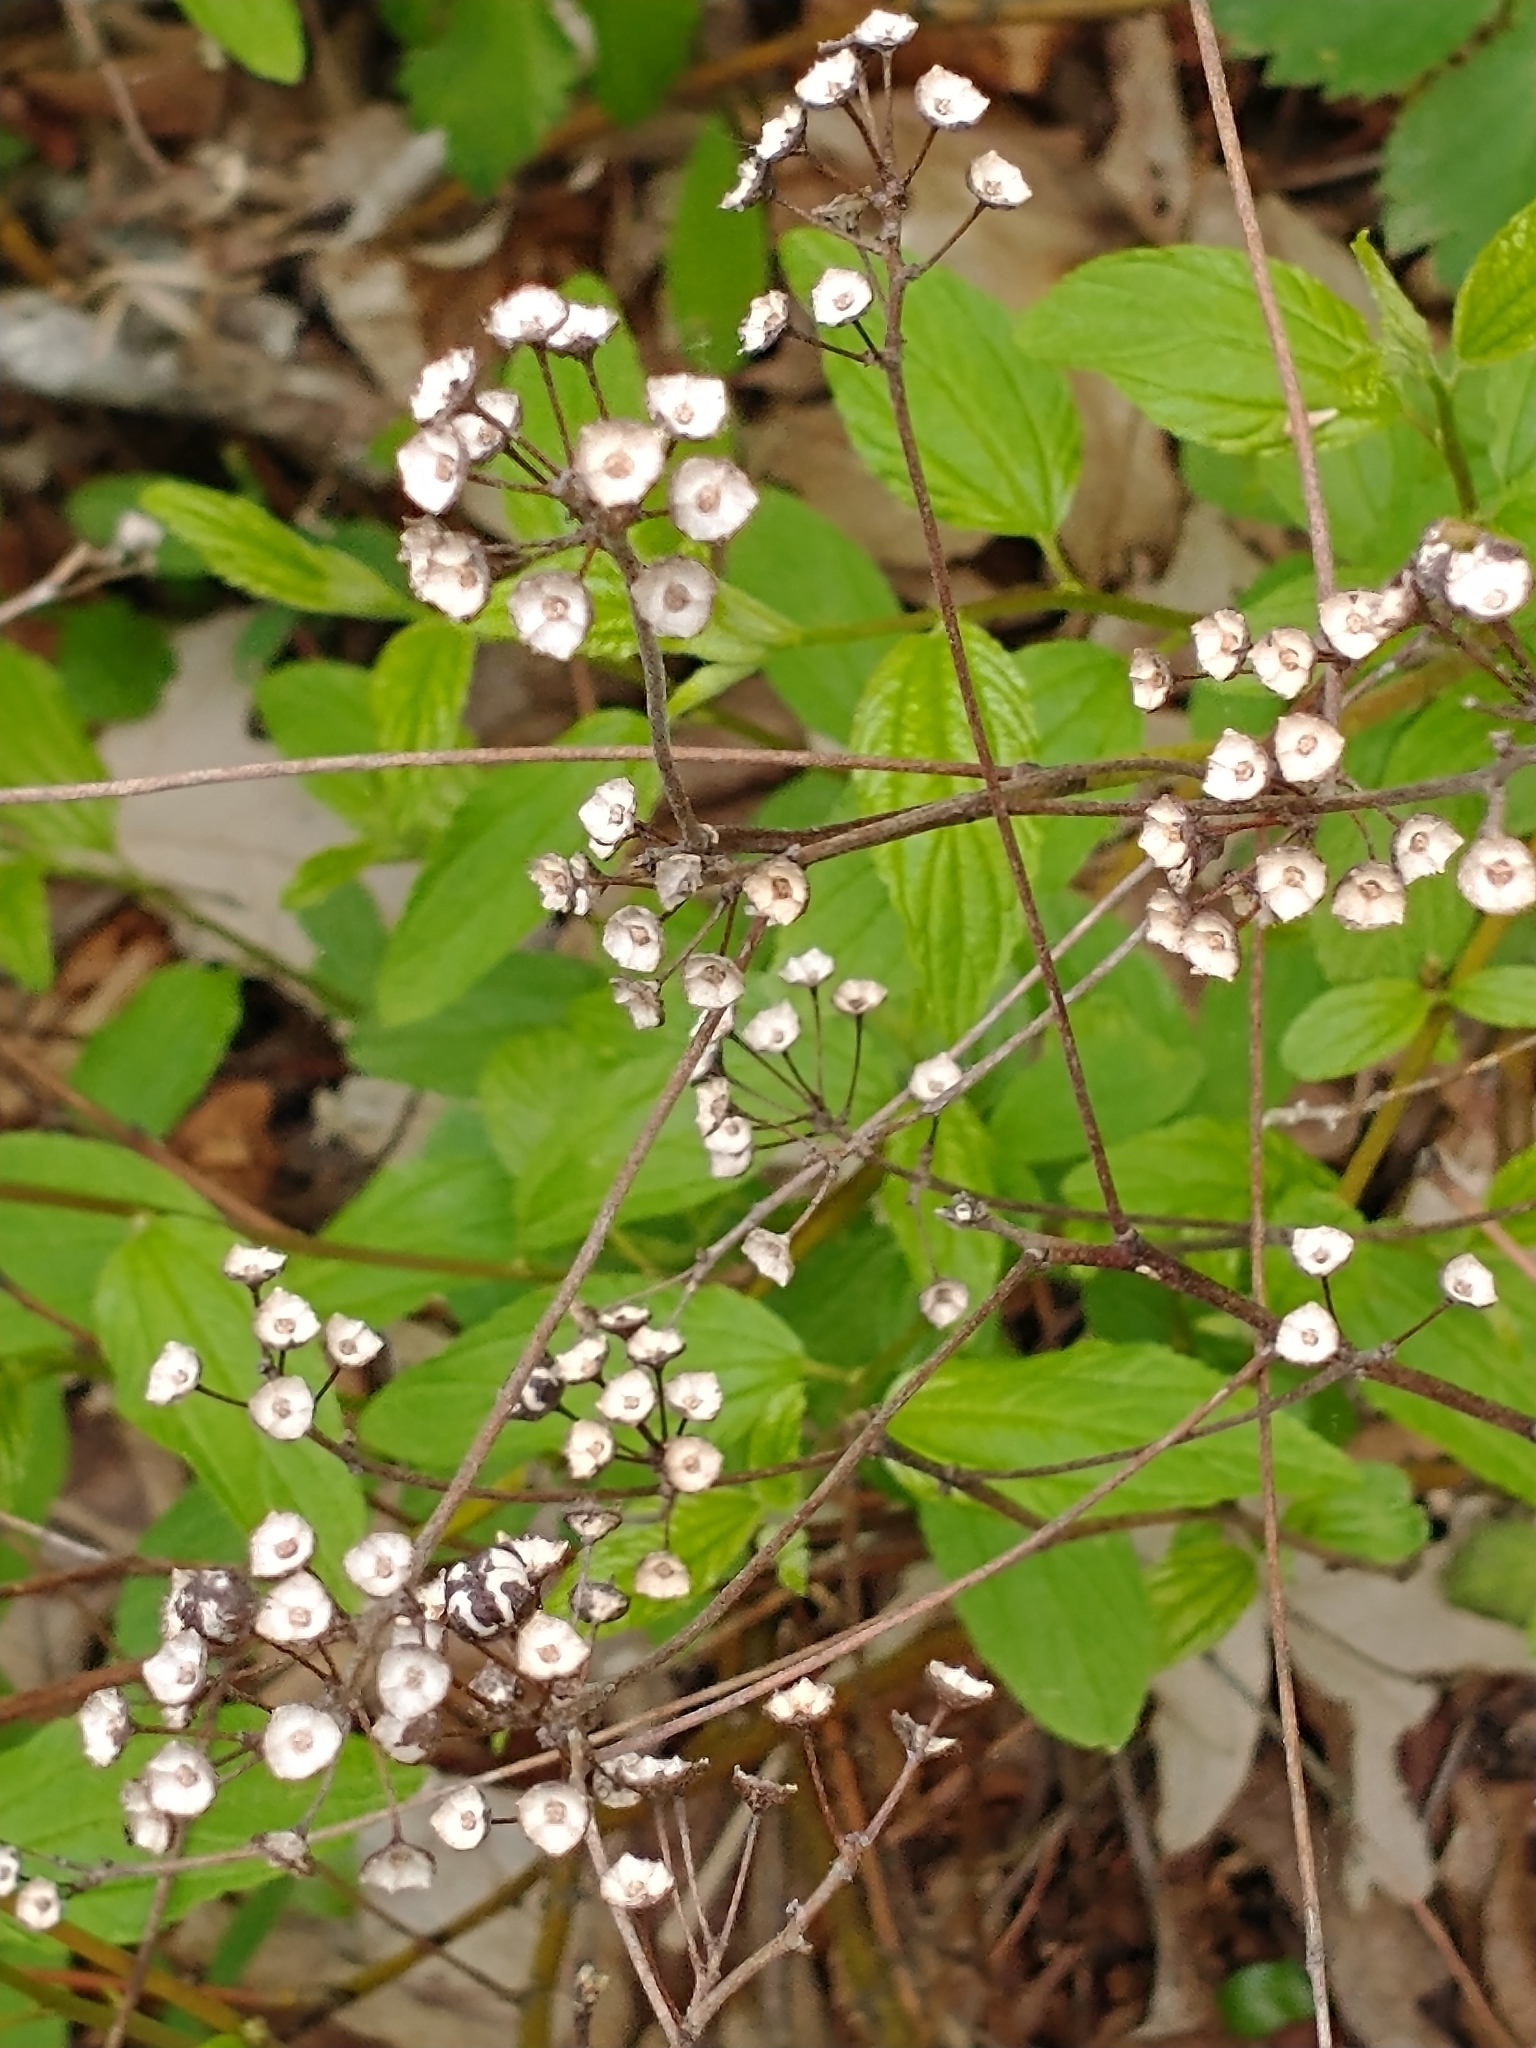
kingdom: Plantae
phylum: Tracheophyta
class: Magnoliopsida
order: Rosales
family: Rhamnaceae
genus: Ceanothus
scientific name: Ceanothus americanus
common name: Redroot
